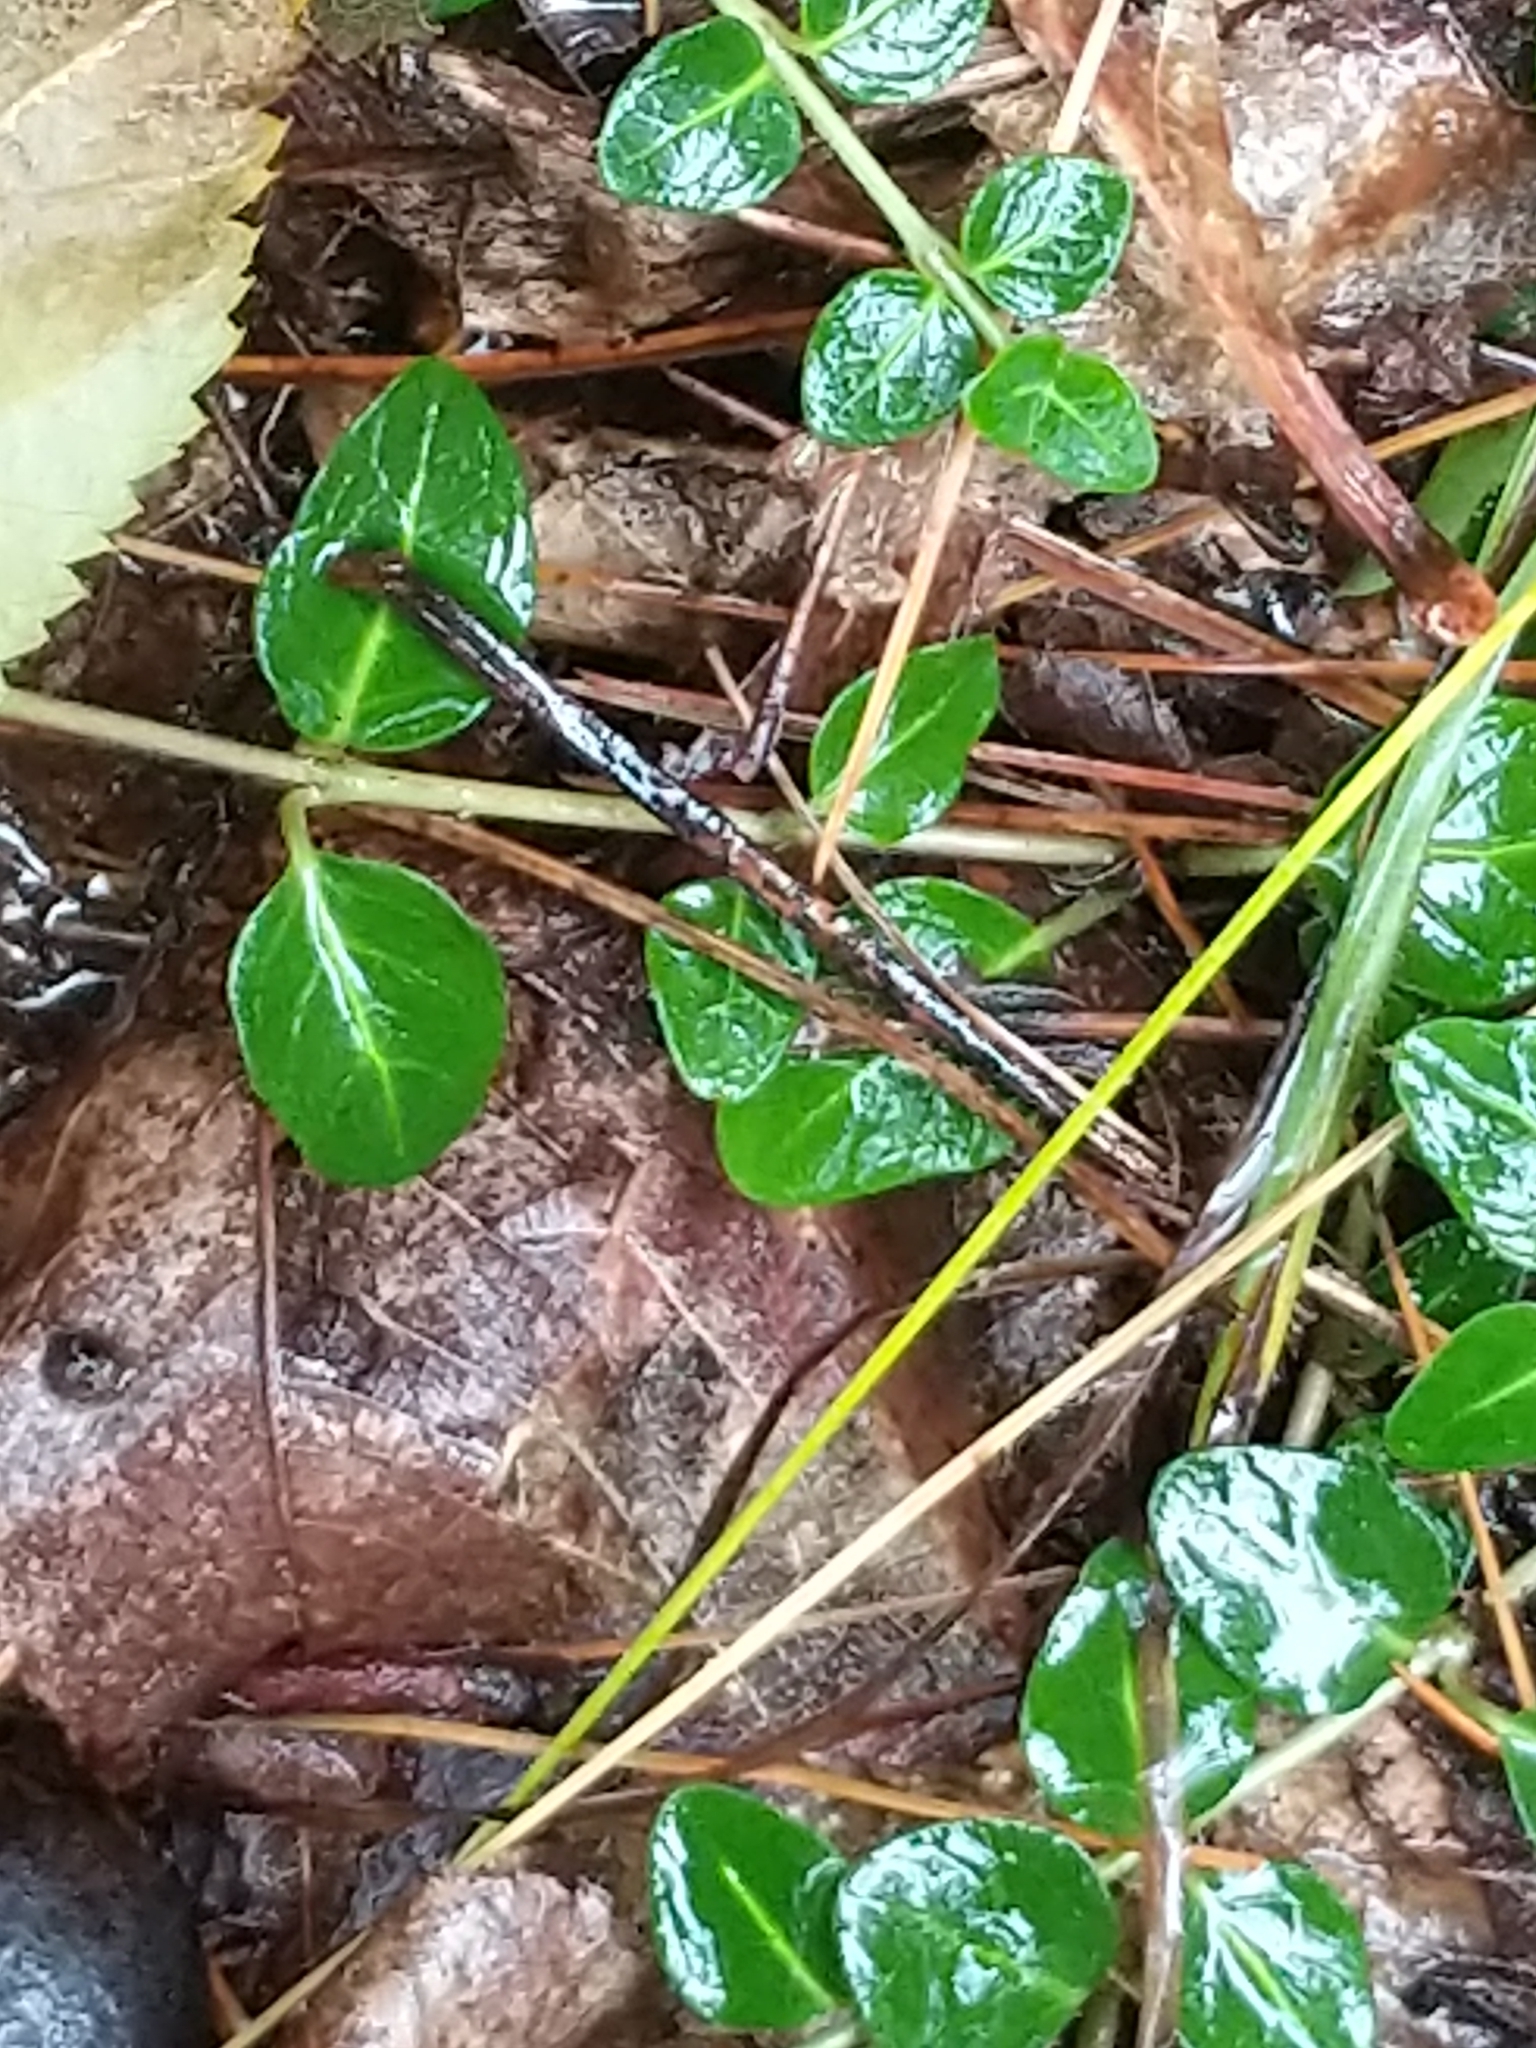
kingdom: Plantae
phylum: Tracheophyta
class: Magnoliopsida
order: Gentianales
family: Rubiaceae
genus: Mitchella
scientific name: Mitchella repens
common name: Partridge-berry
